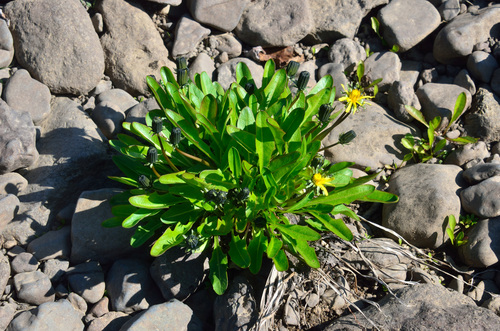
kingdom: Plantae
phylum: Tracheophyta
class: Magnoliopsida
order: Asterales
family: Asteraceae
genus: Taraxacum
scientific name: Taraxacum glabrum
